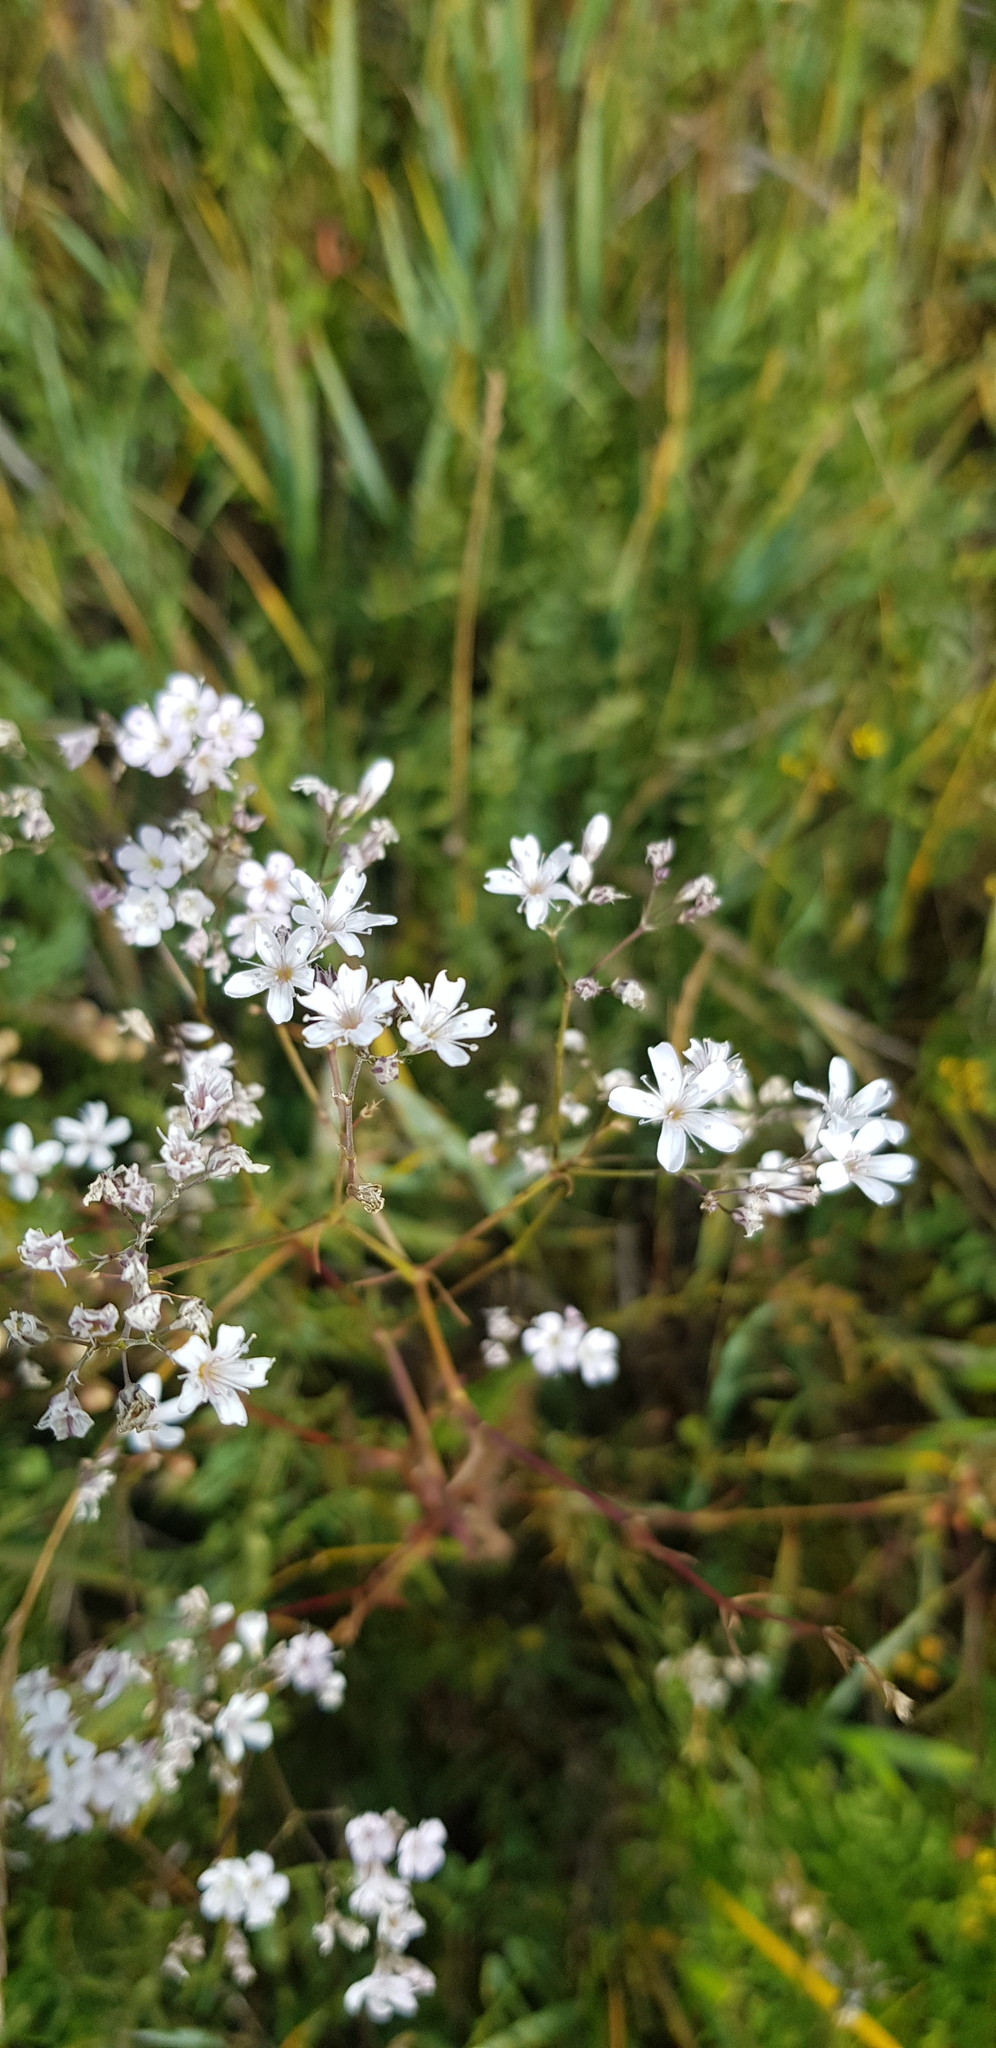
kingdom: Plantae
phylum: Tracheophyta
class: Magnoliopsida
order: Caryophyllales
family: Caryophyllaceae
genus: Gypsophila
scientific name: Gypsophila davurica
